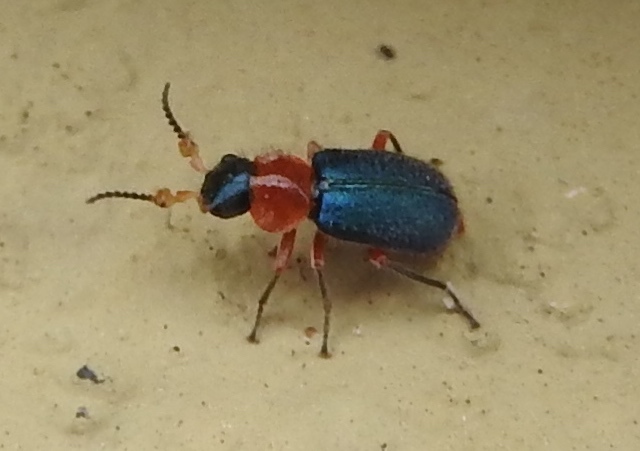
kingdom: Animalia
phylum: Arthropoda
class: Insecta
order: Coleoptera
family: Melyridae
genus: Collops
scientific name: Collops
